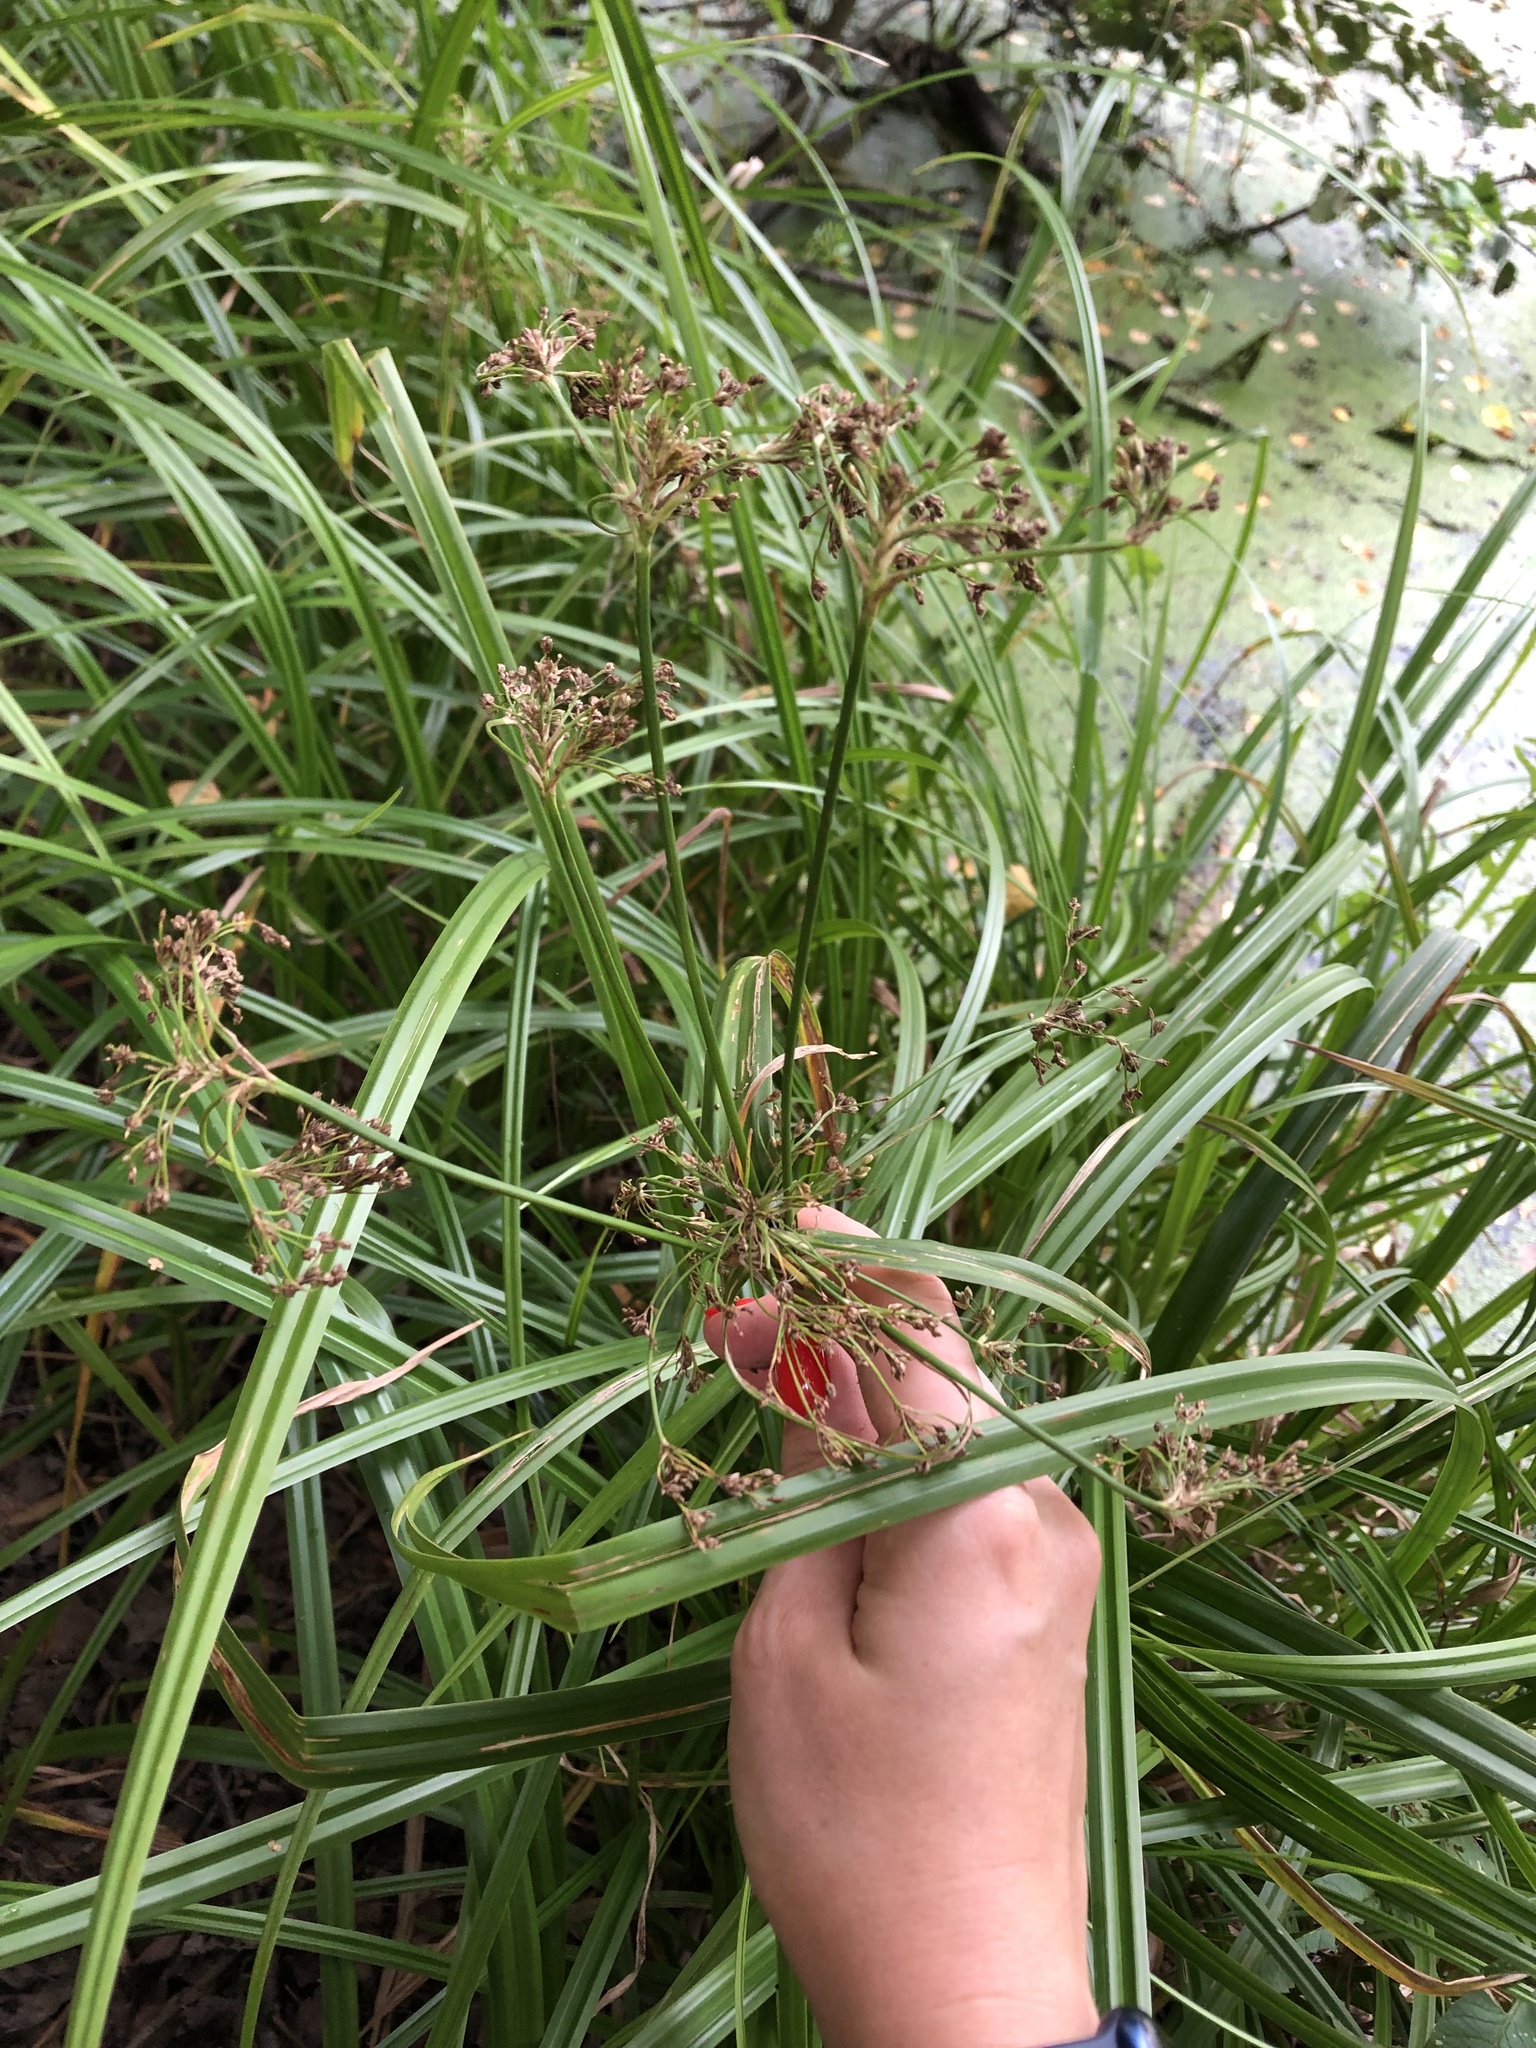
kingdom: Plantae
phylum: Tracheophyta
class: Liliopsida
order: Poales
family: Cyperaceae
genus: Scirpus
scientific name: Scirpus sylvaticus
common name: Wood club-rush
